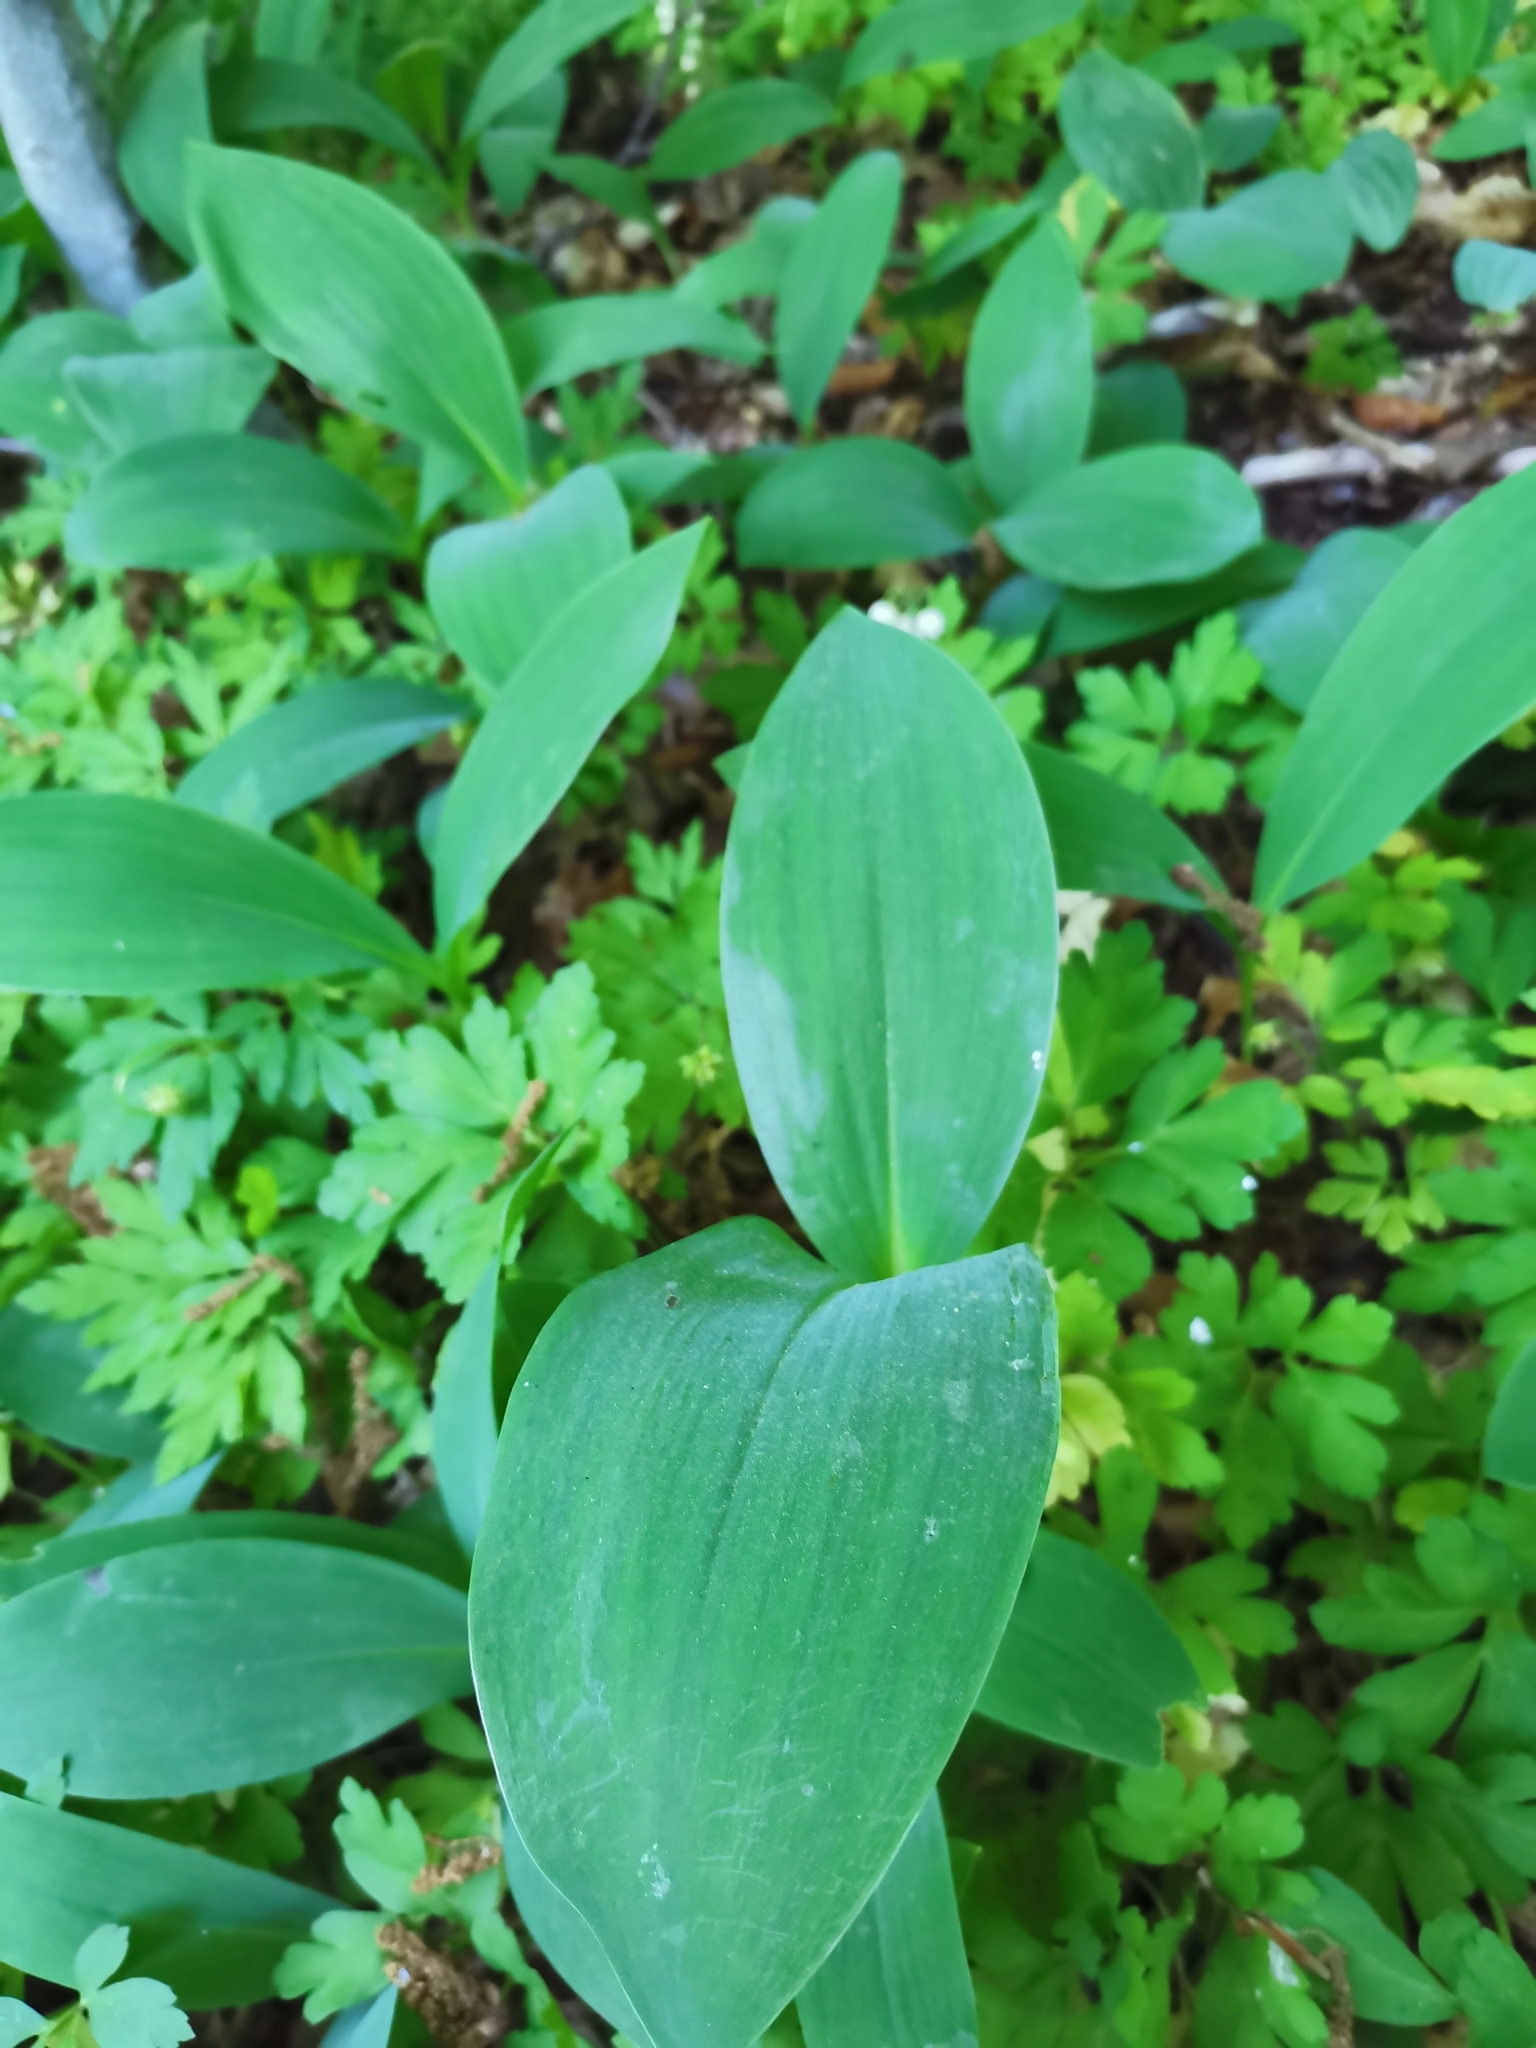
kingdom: Plantae
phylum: Tracheophyta
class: Liliopsida
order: Asparagales
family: Asparagaceae
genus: Convallaria
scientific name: Convallaria majalis
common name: Lily-of-the-valley
